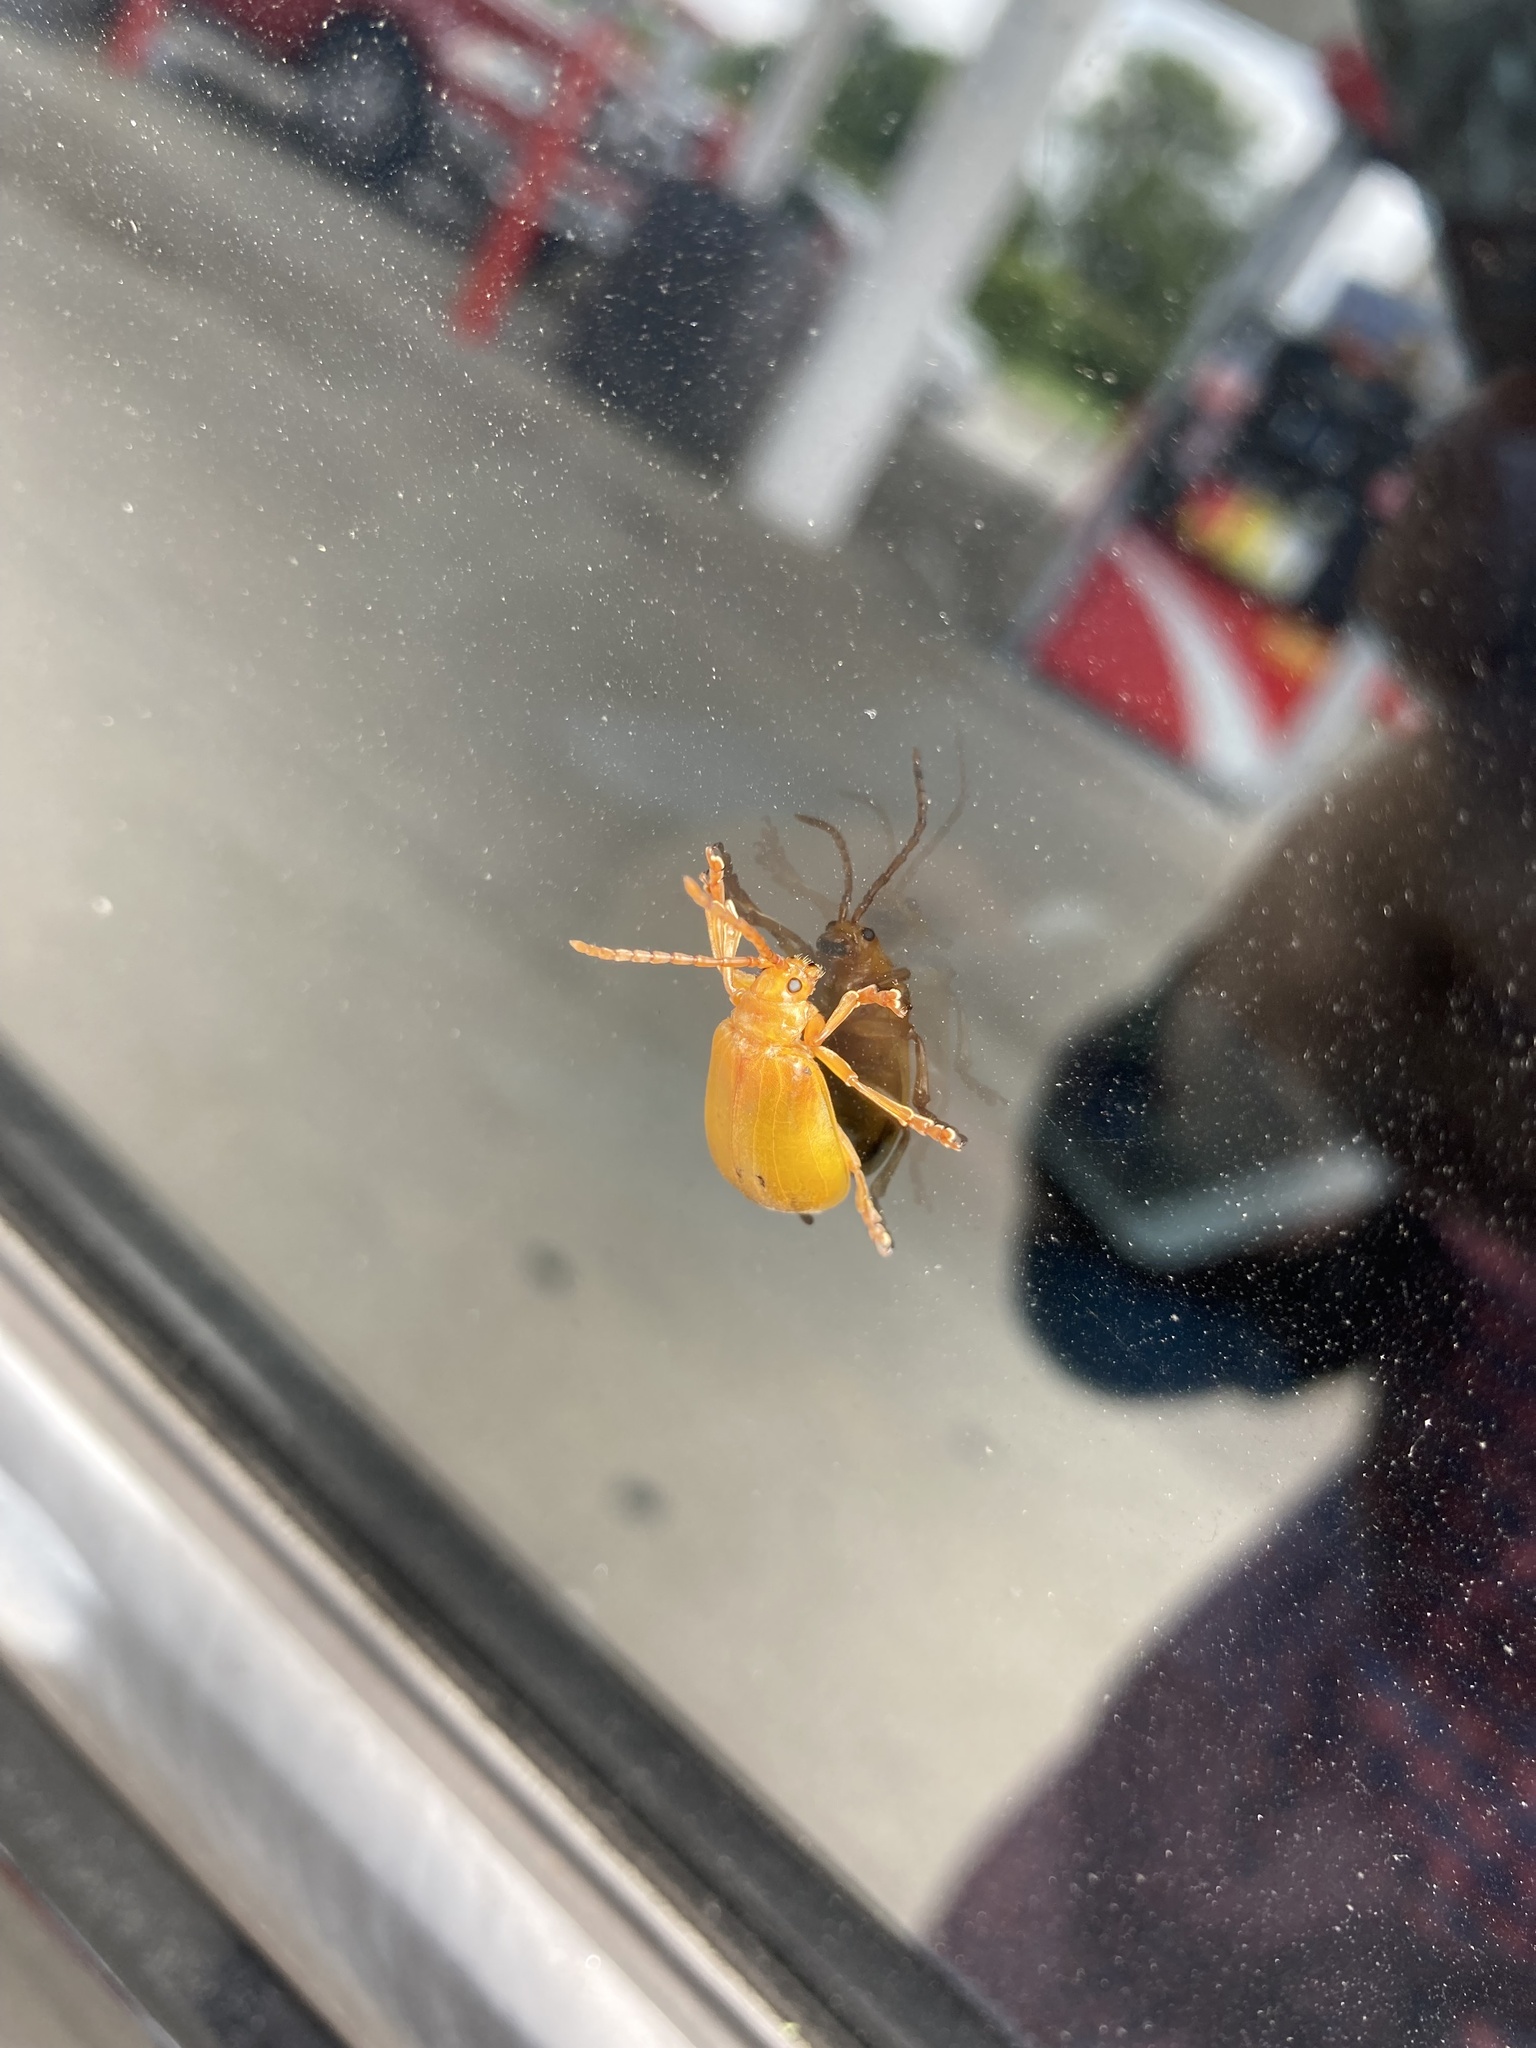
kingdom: Animalia
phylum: Arthropoda
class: Insecta
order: Coleoptera
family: Chrysomelidae
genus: Monocesta
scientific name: Monocesta coryli
